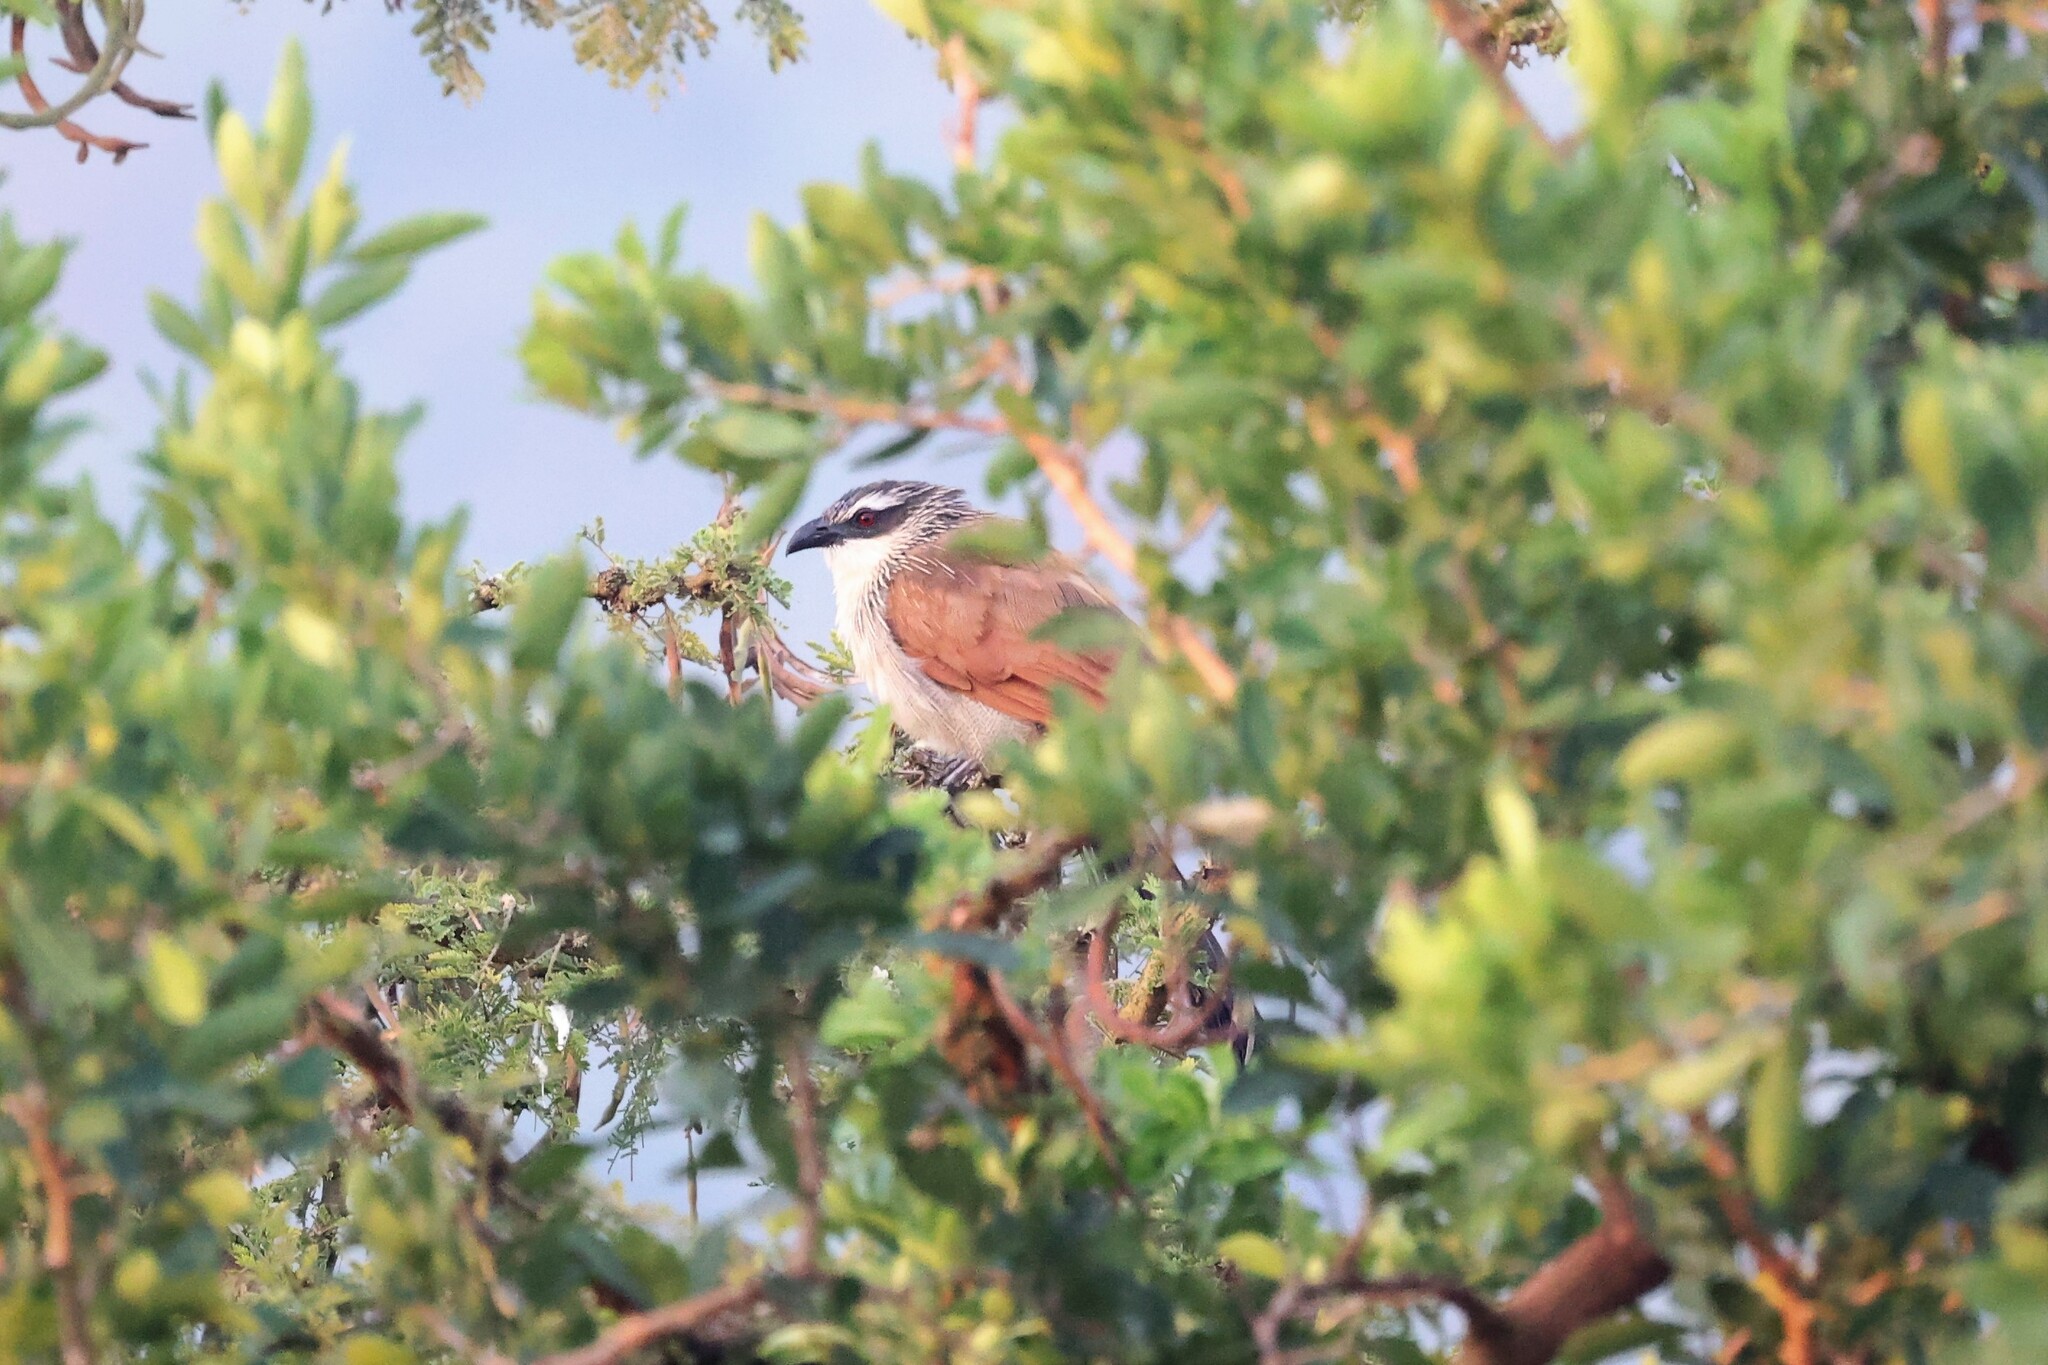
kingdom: Animalia
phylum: Chordata
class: Aves
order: Cuculiformes
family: Cuculidae
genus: Centropus
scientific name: Centropus superciliosus
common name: White-browed coucal
